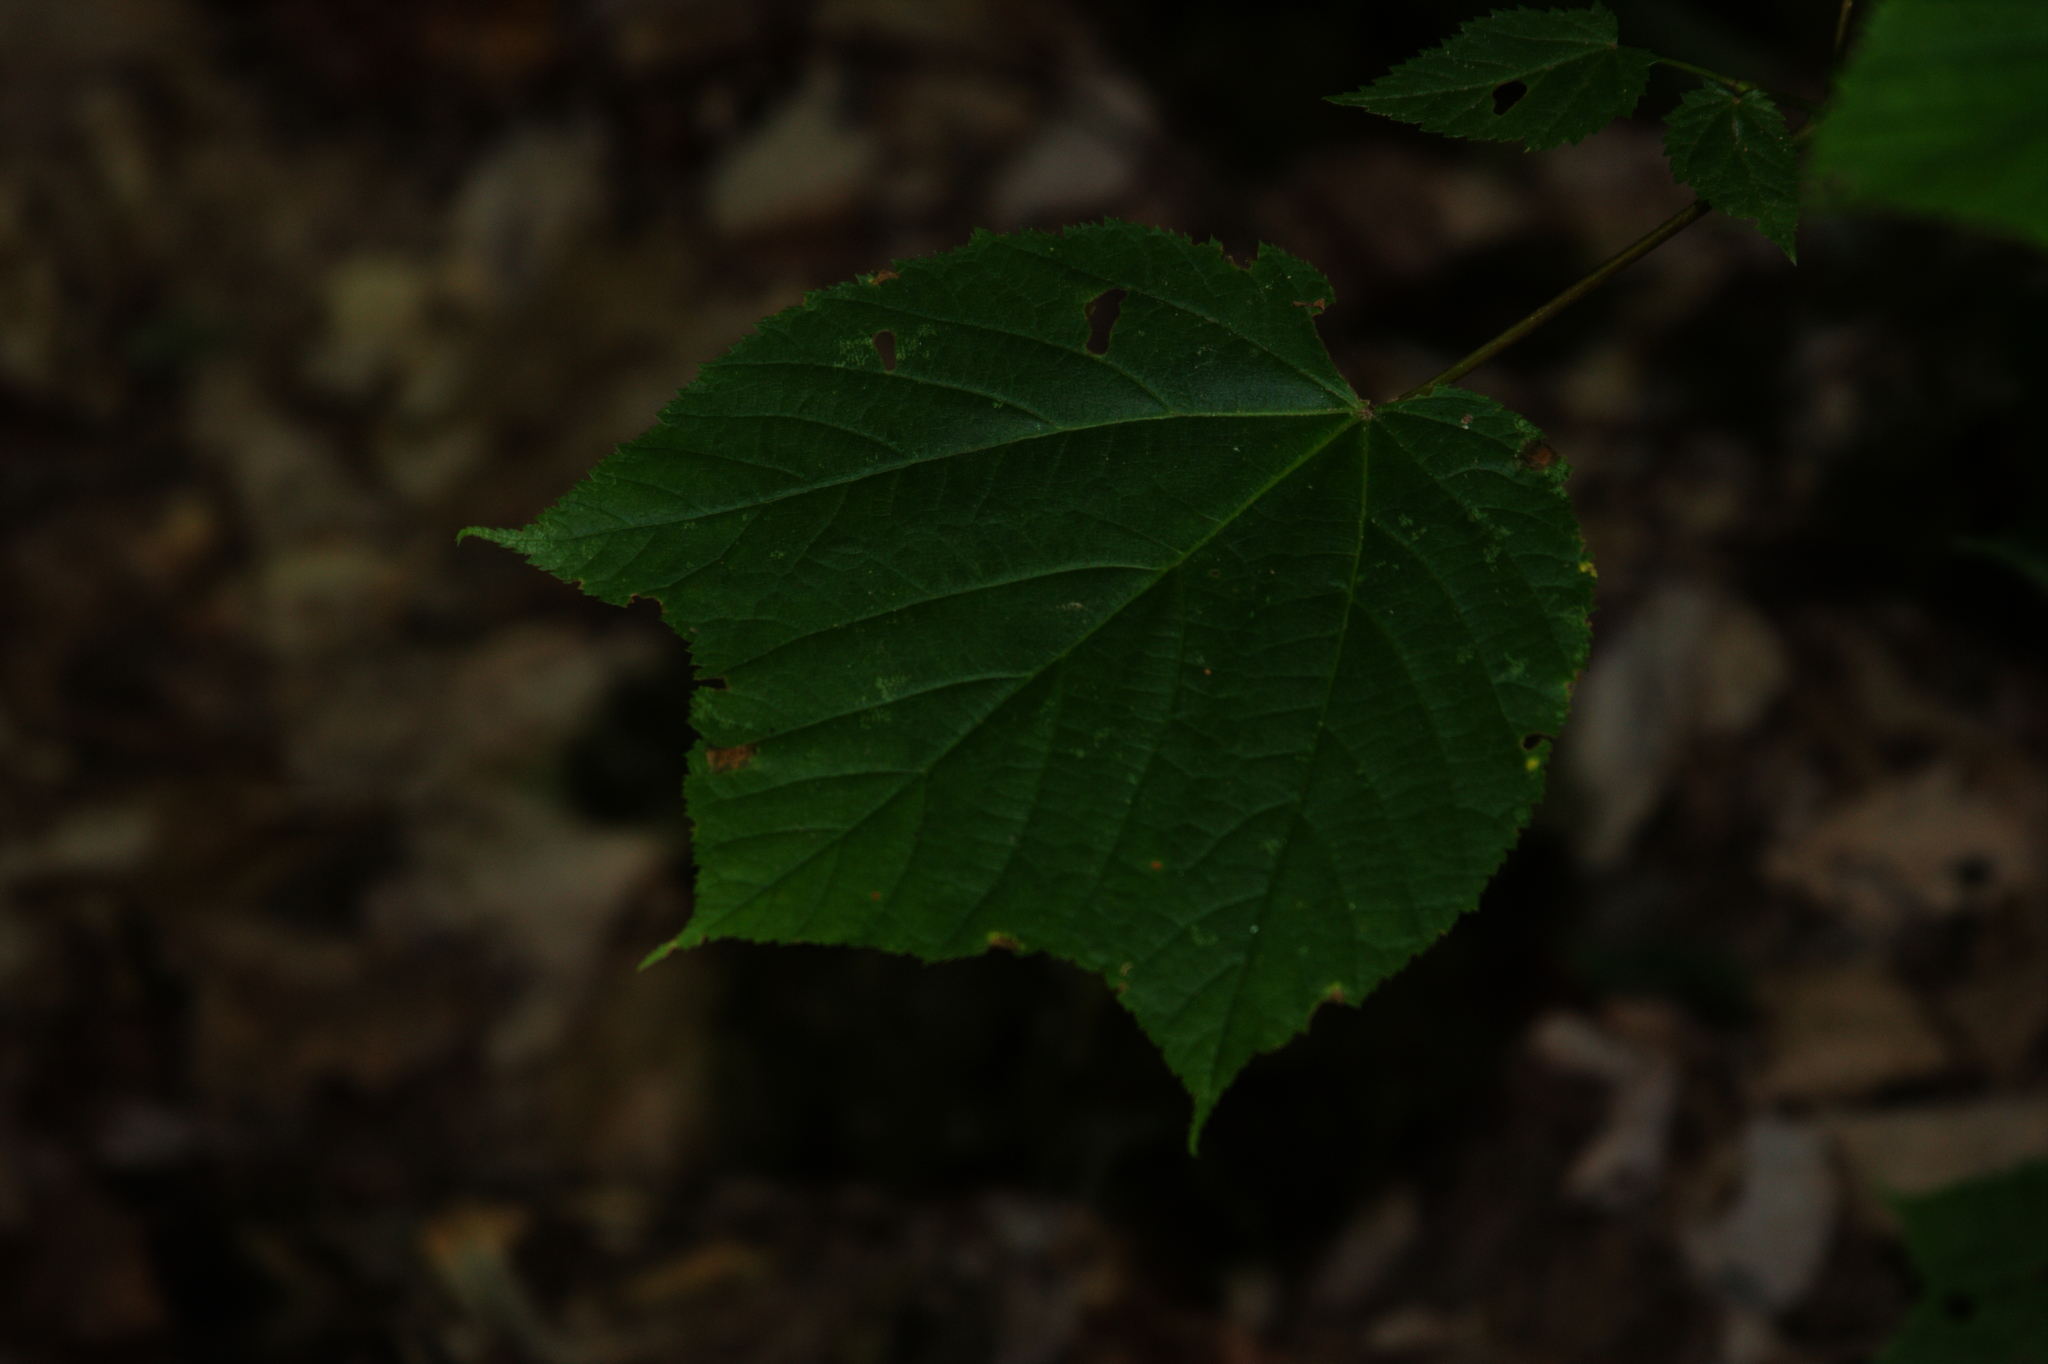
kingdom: Plantae
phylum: Tracheophyta
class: Magnoliopsida
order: Sapindales
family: Sapindaceae
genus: Acer
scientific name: Acer pensylvanicum
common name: Moosewood
